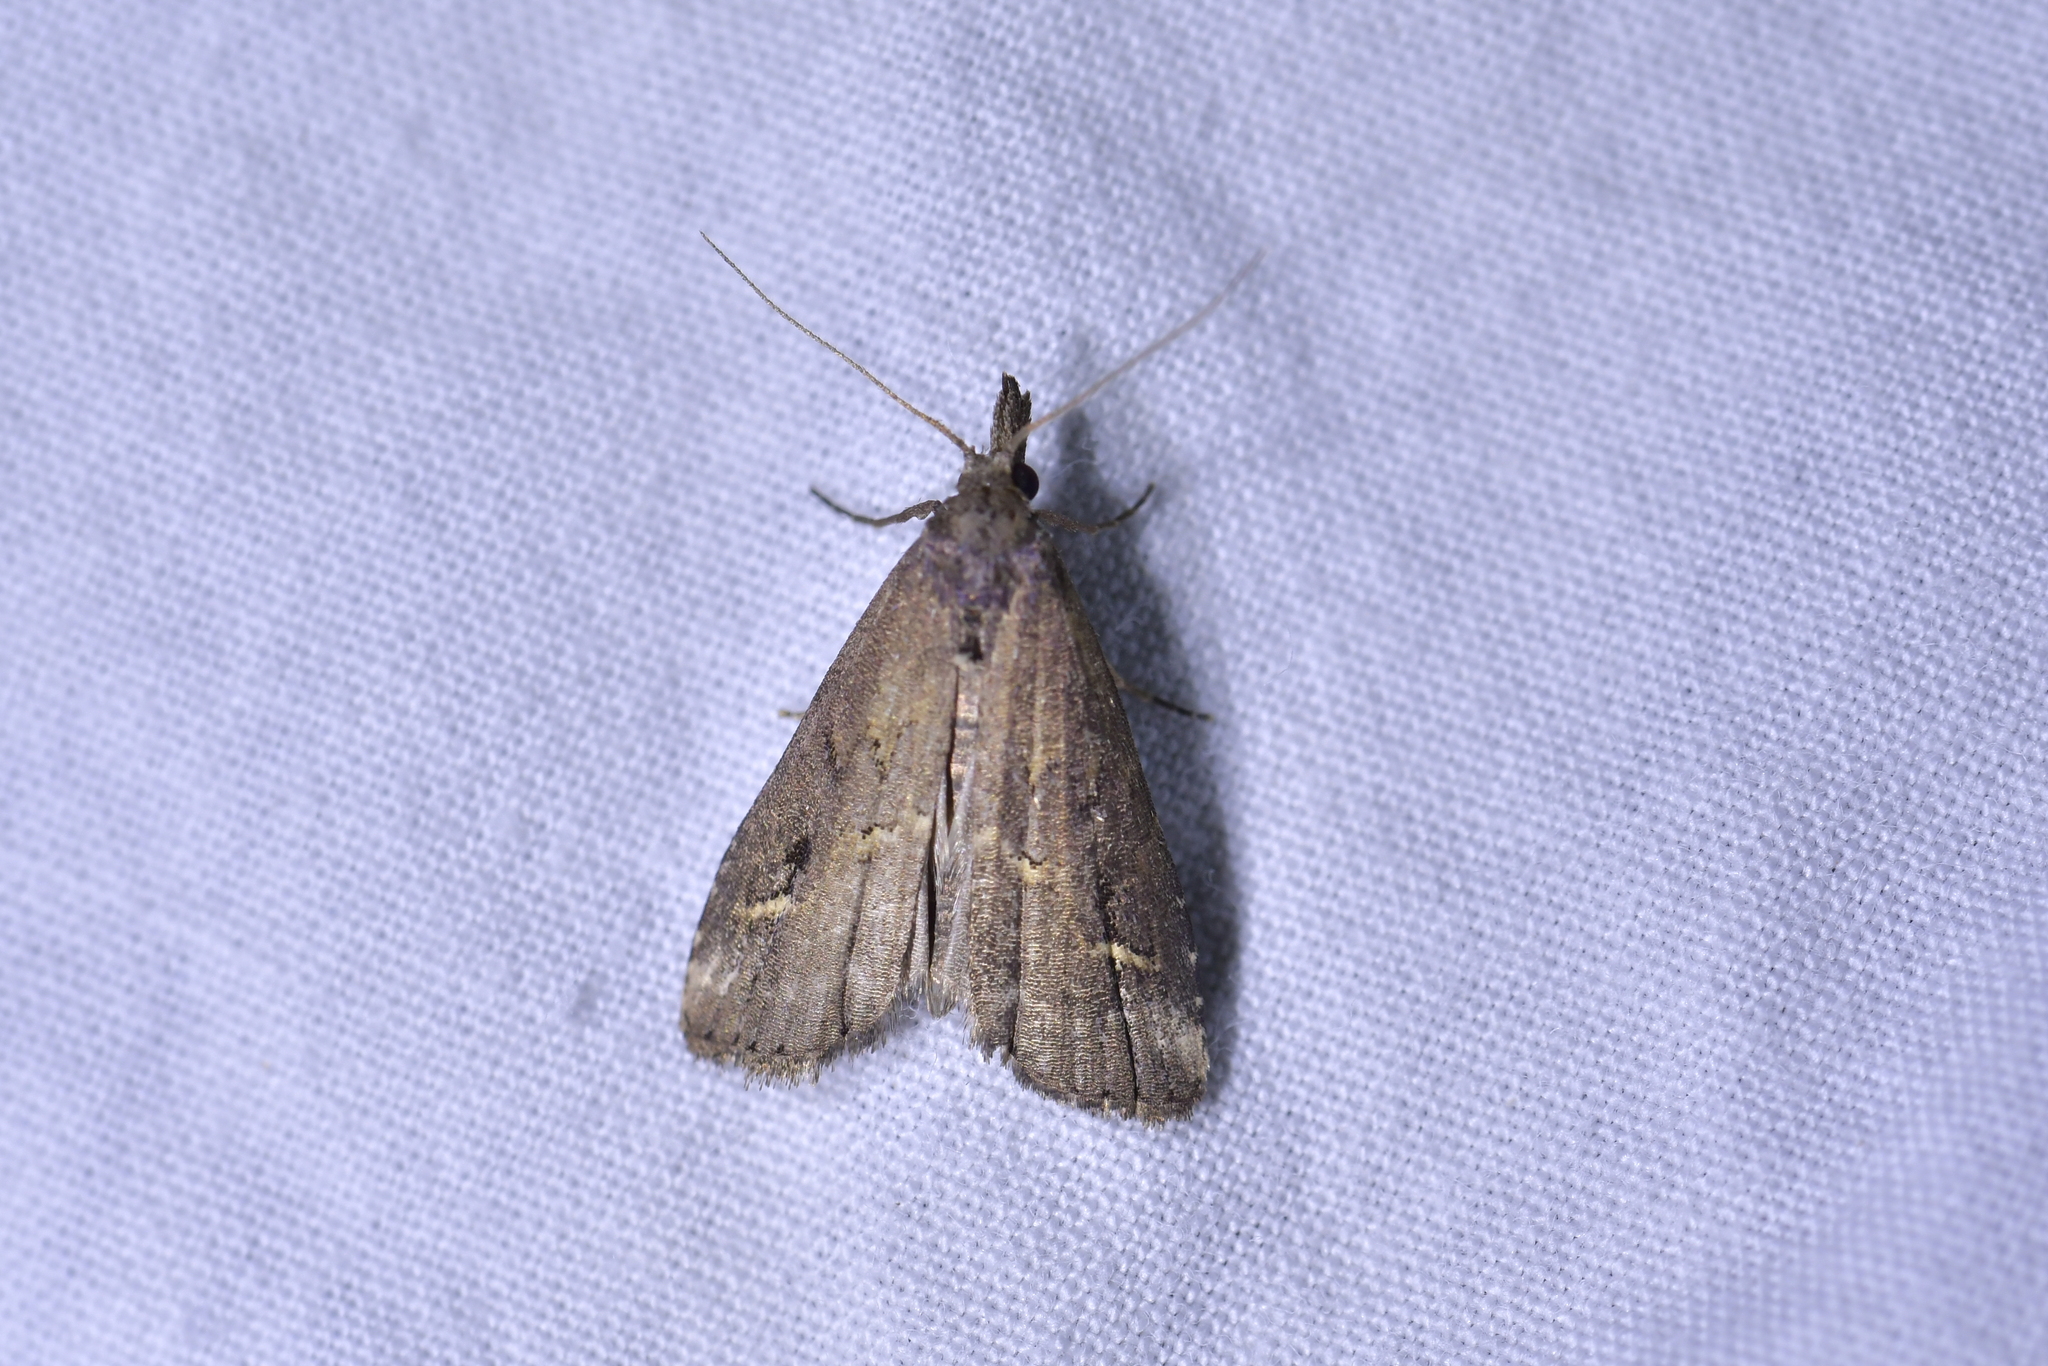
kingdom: Animalia
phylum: Arthropoda
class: Insecta
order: Lepidoptera
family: Erebidae
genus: Schrankia
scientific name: Schrankia costaestrigalis
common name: Pinion-streaked snout
